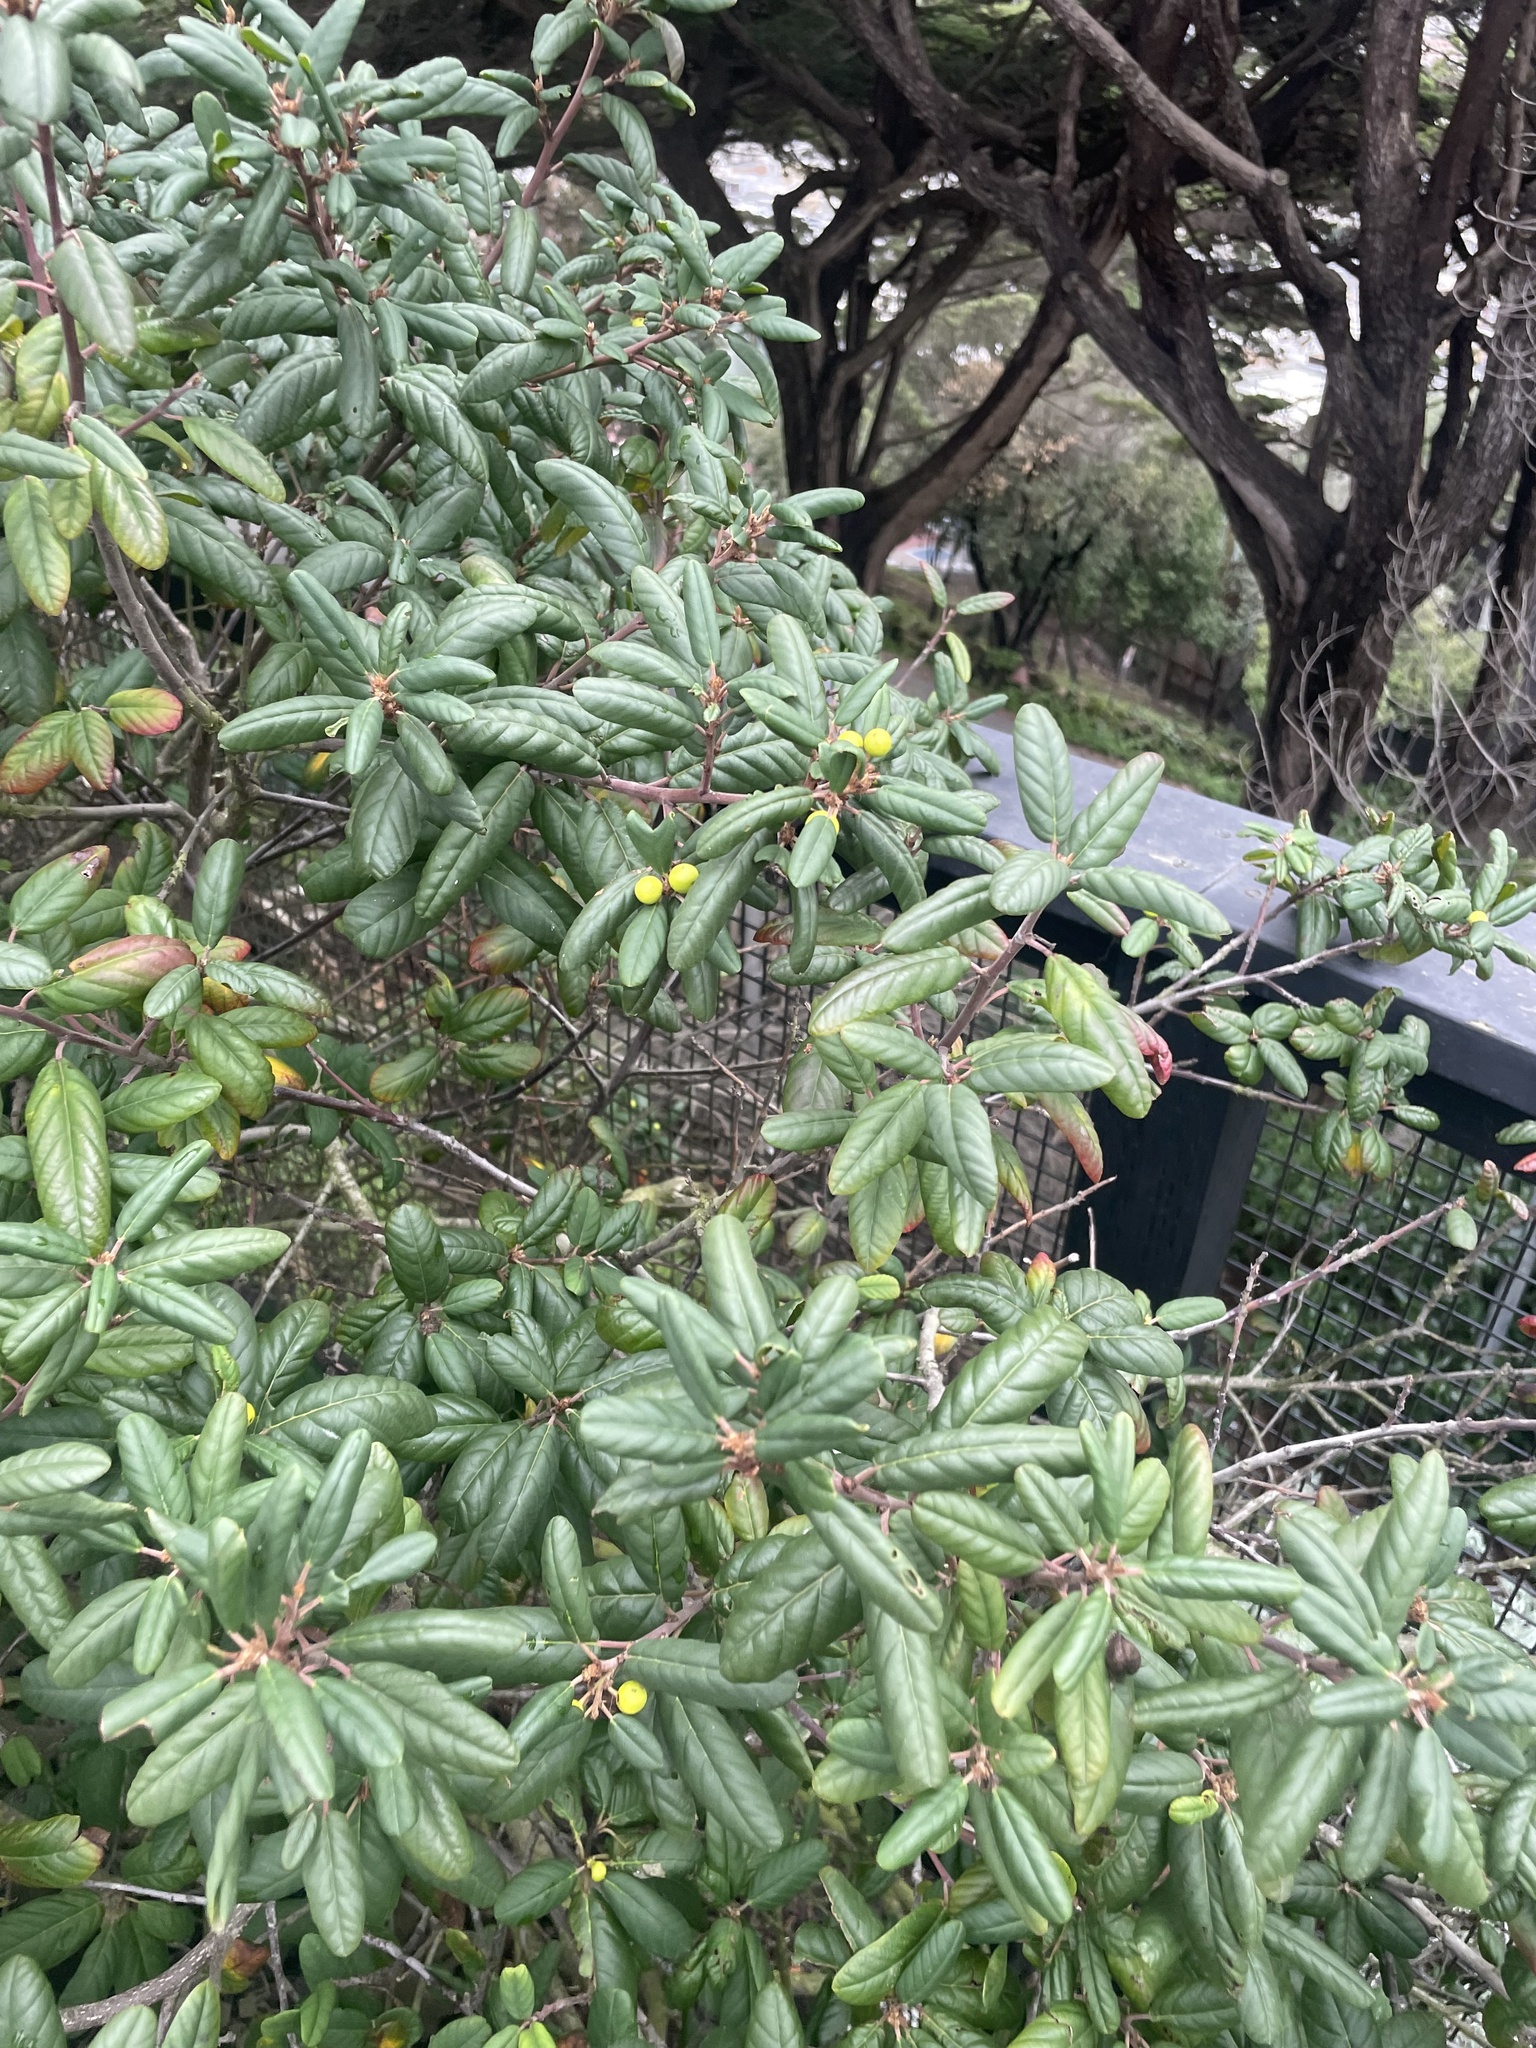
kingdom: Plantae
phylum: Tracheophyta
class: Magnoliopsida
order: Rosales
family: Rhamnaceae
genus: Frangula
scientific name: Frangula californica
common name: California buckthorn
